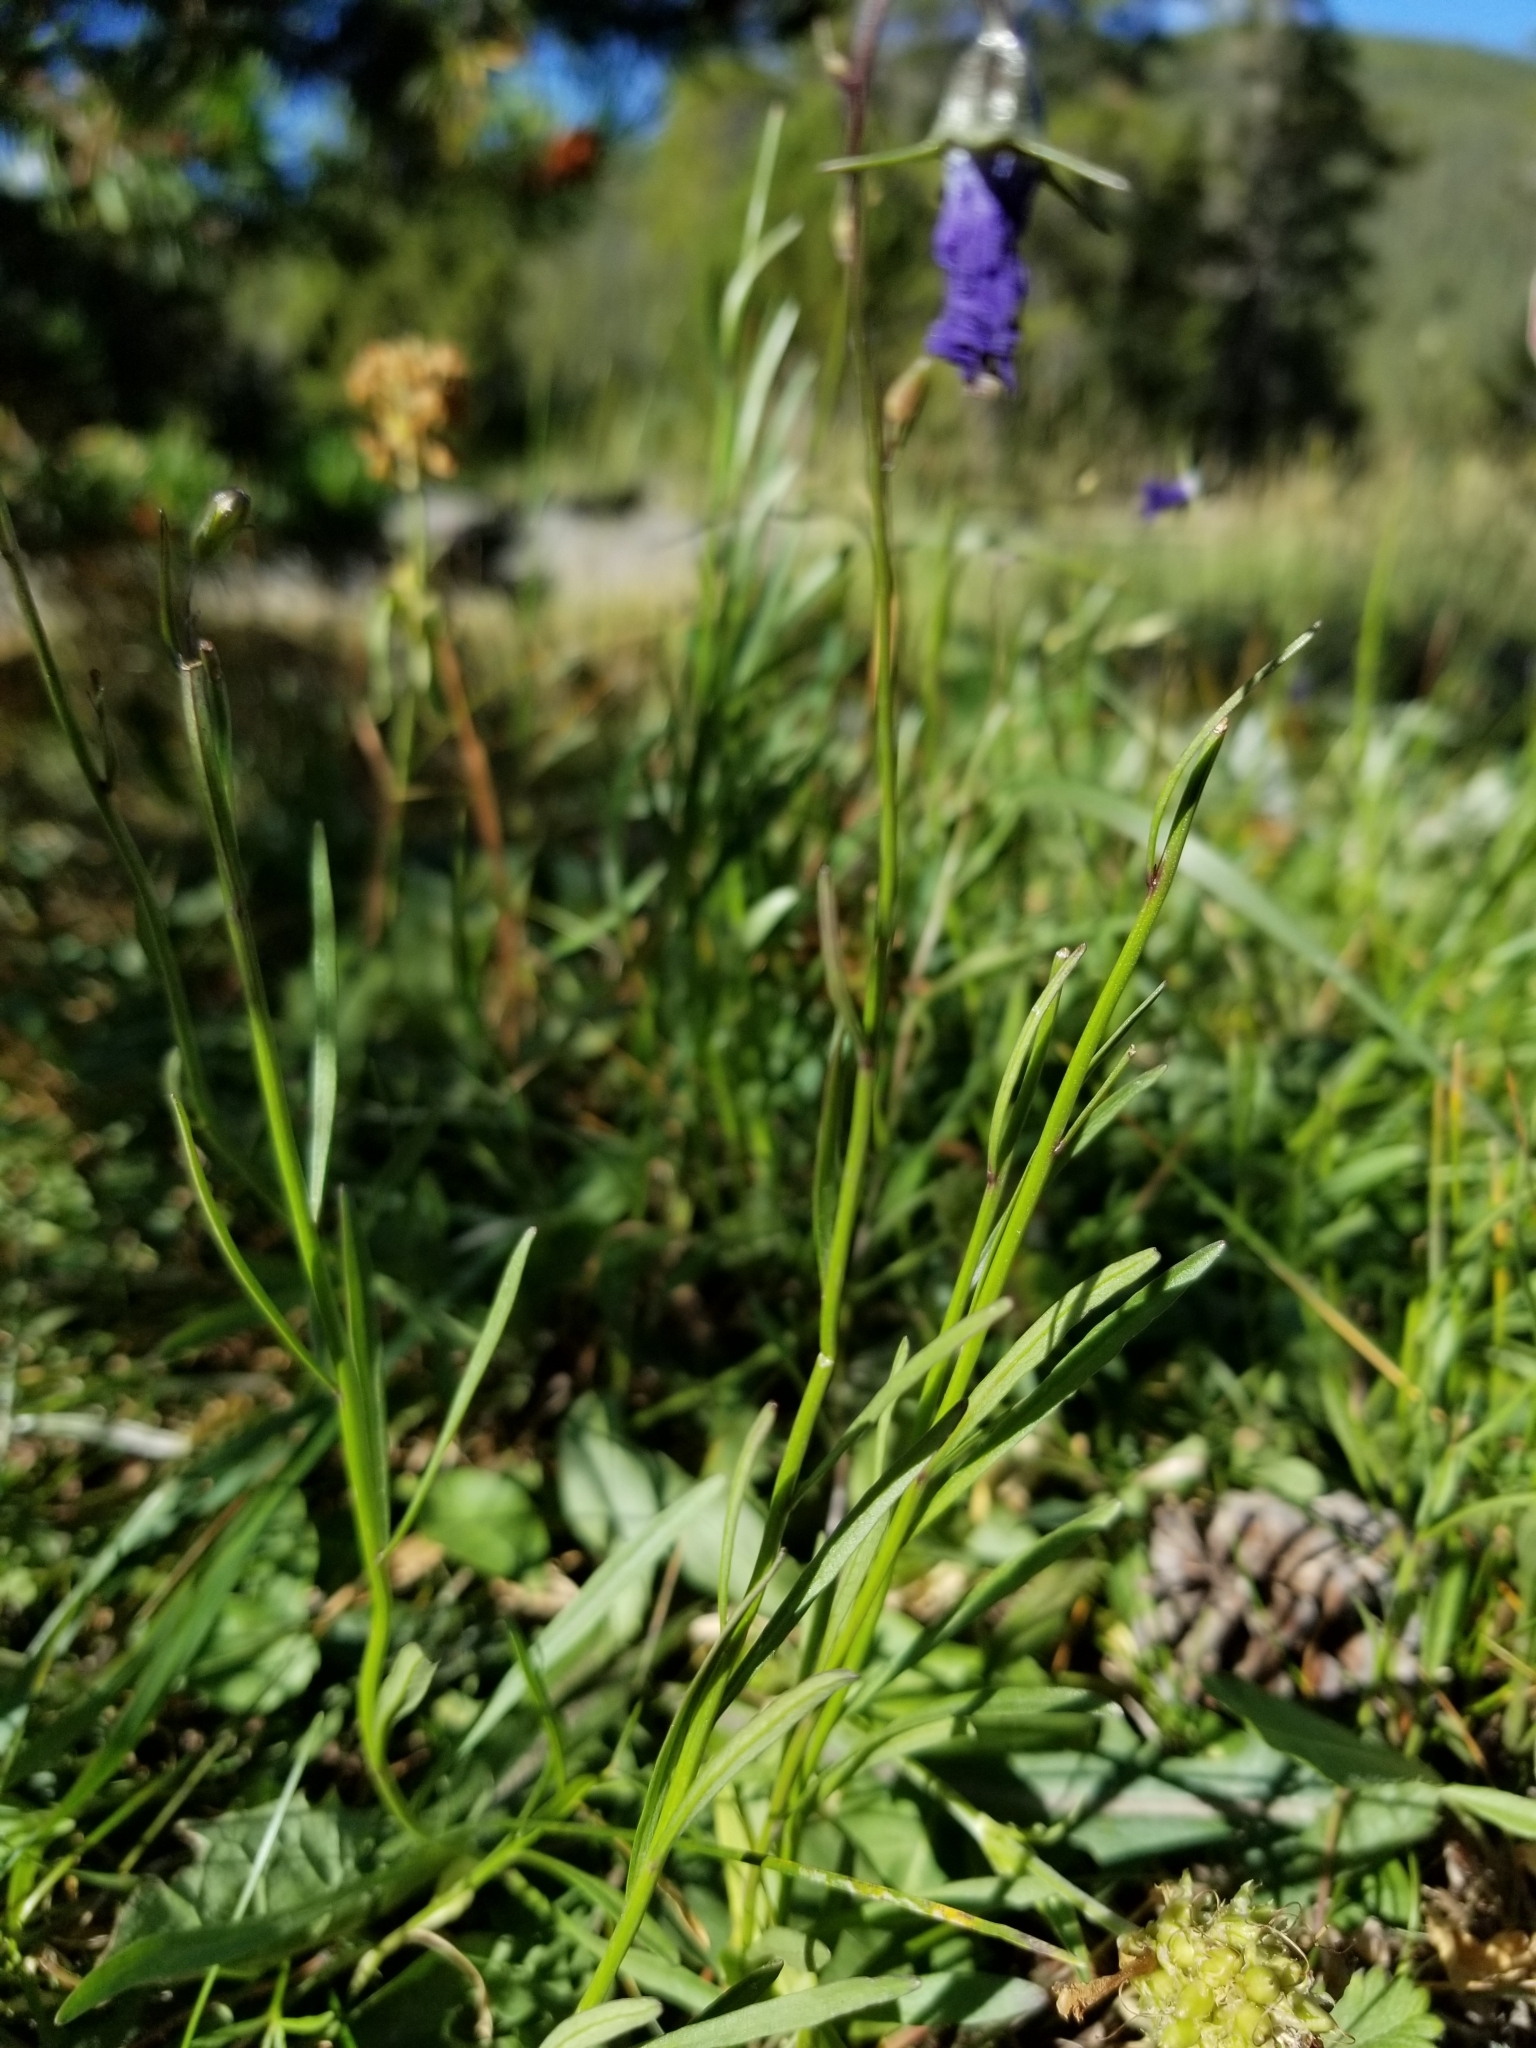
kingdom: Plantae
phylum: Tracheophyta
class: Magnoliopsida
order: Asterales
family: Campanulaceae
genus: Campanula
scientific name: Campanula petiolata
